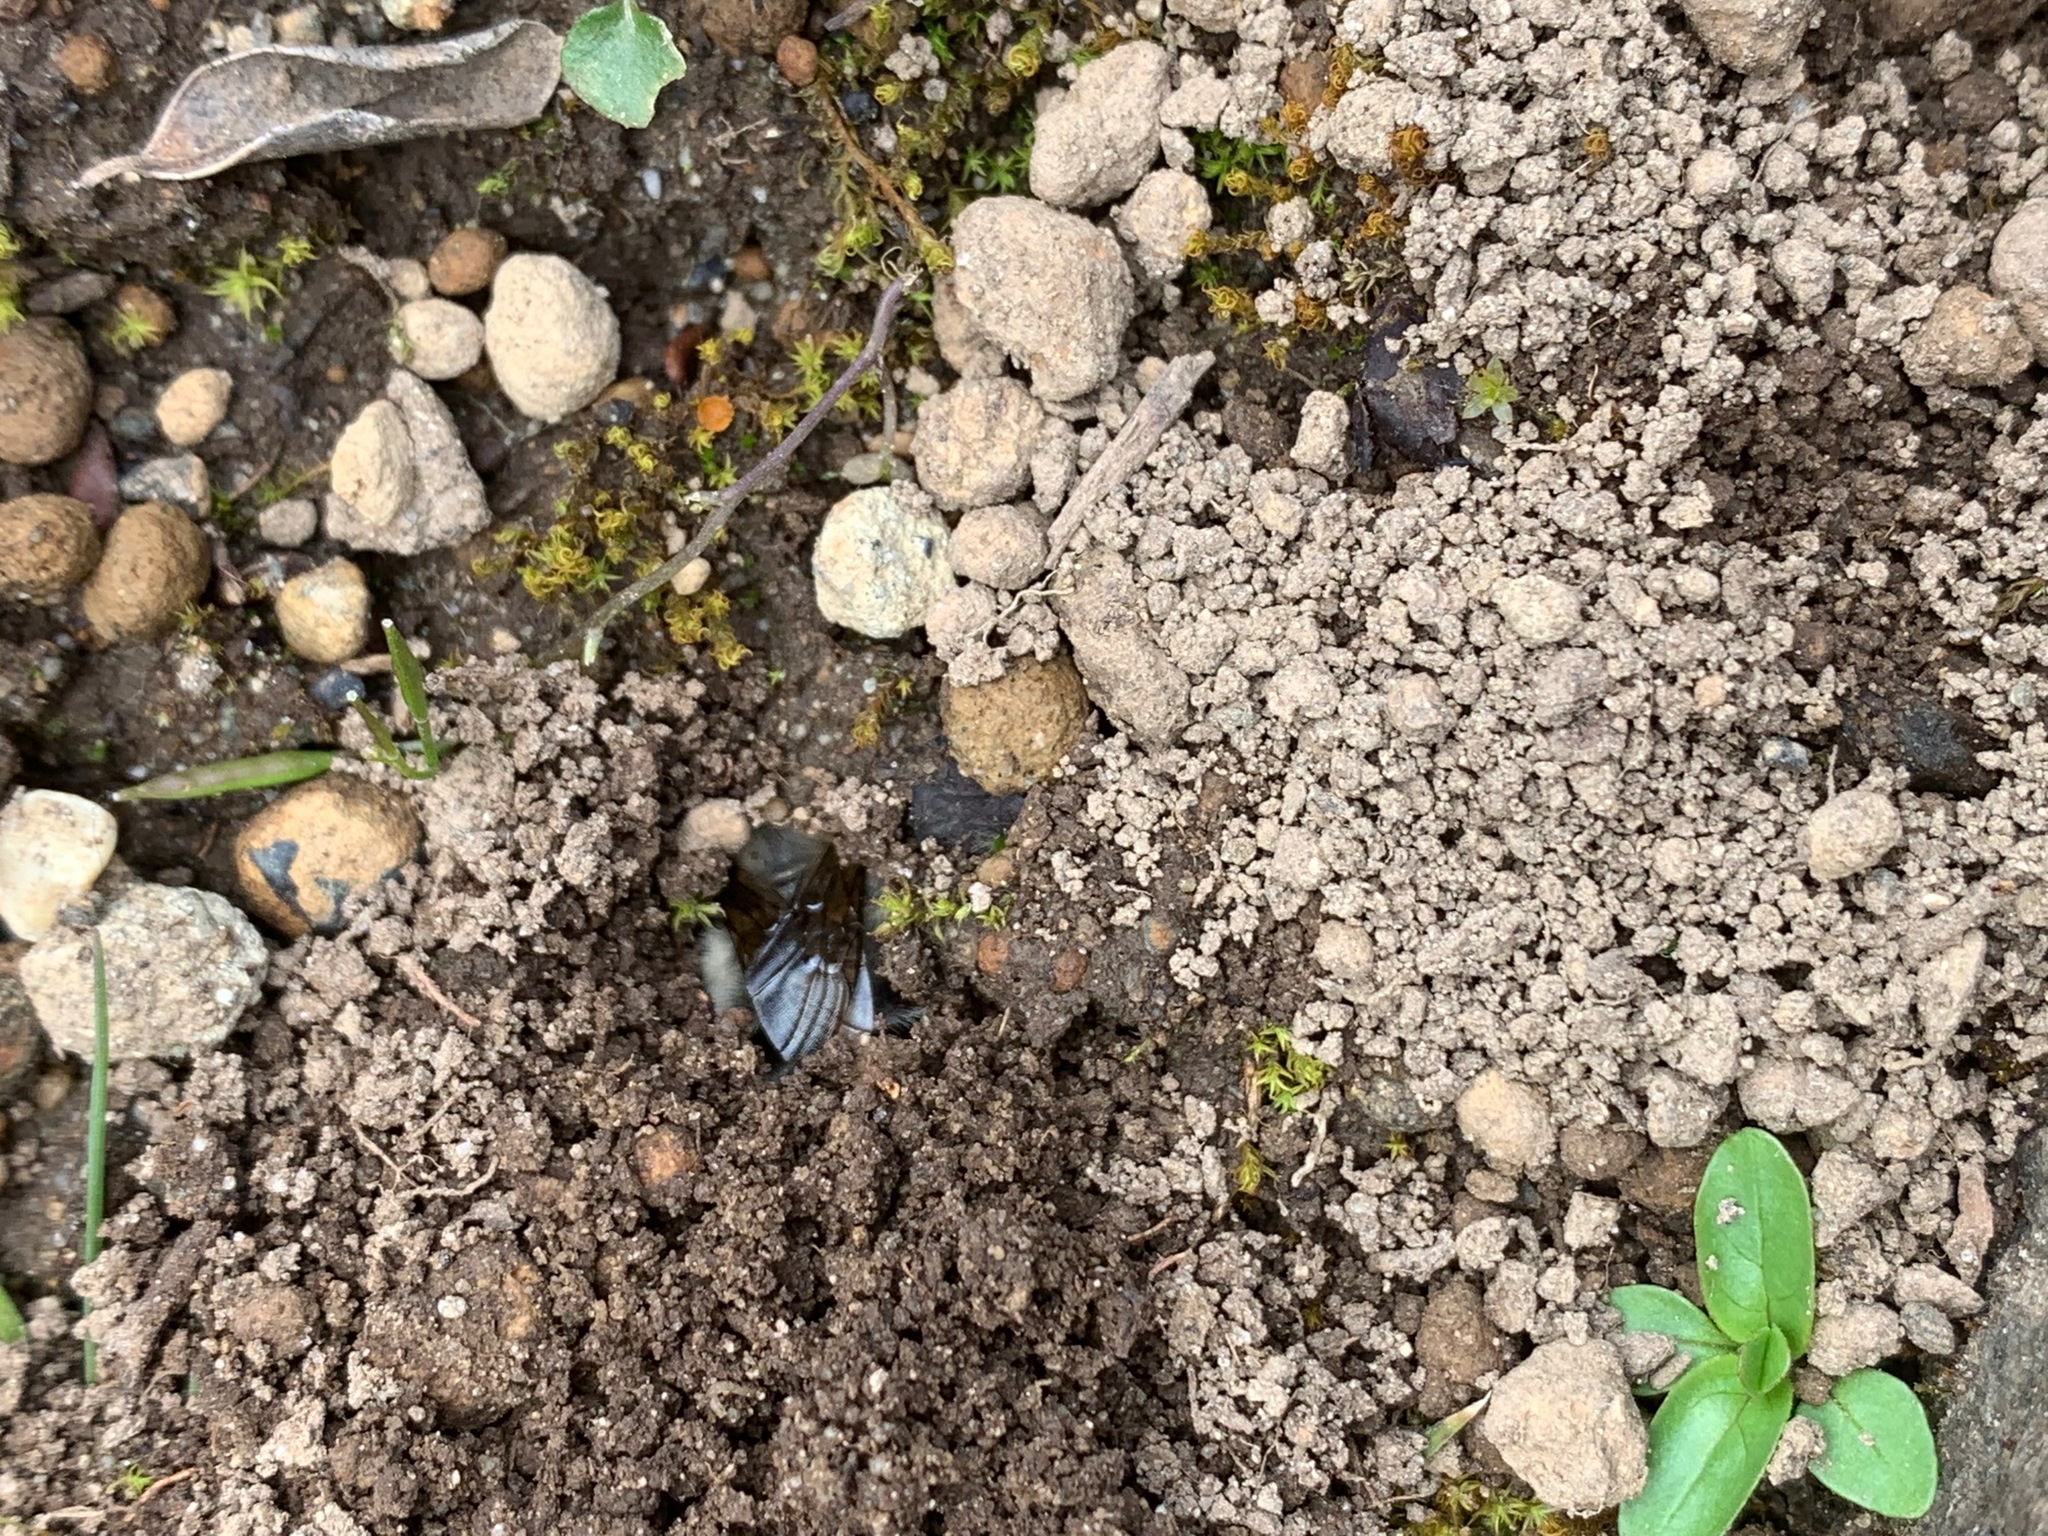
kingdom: Animalia
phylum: Arthropoda
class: Insecta
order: Hymenoptera
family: Apidae
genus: Anthophora
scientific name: Anthophora pacifica
